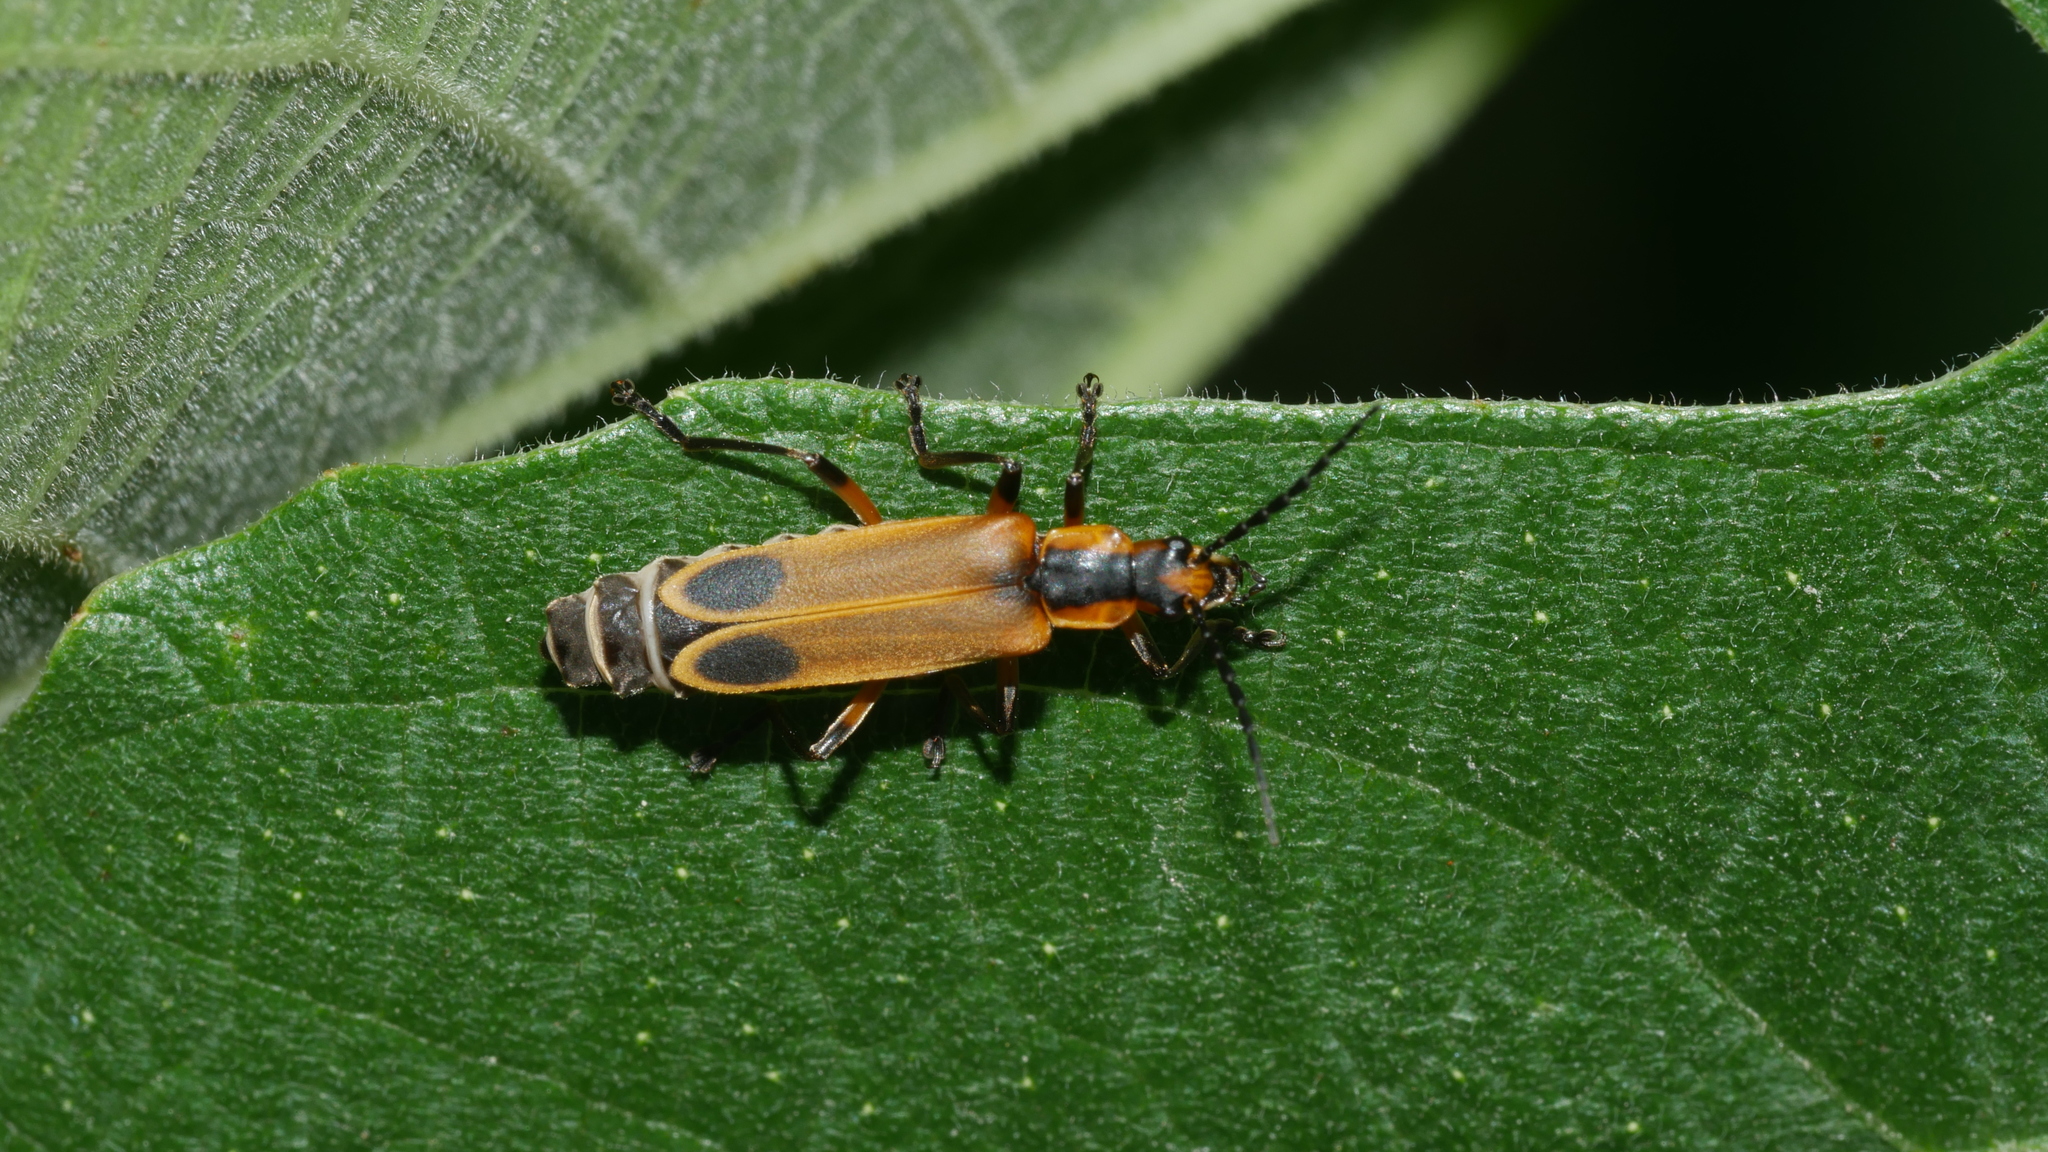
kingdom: Animalia
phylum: Arthropoda
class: Insecta
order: Coleoptera
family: Cantharidae
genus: Chauliognathus
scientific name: Chauliognathus marginatus
